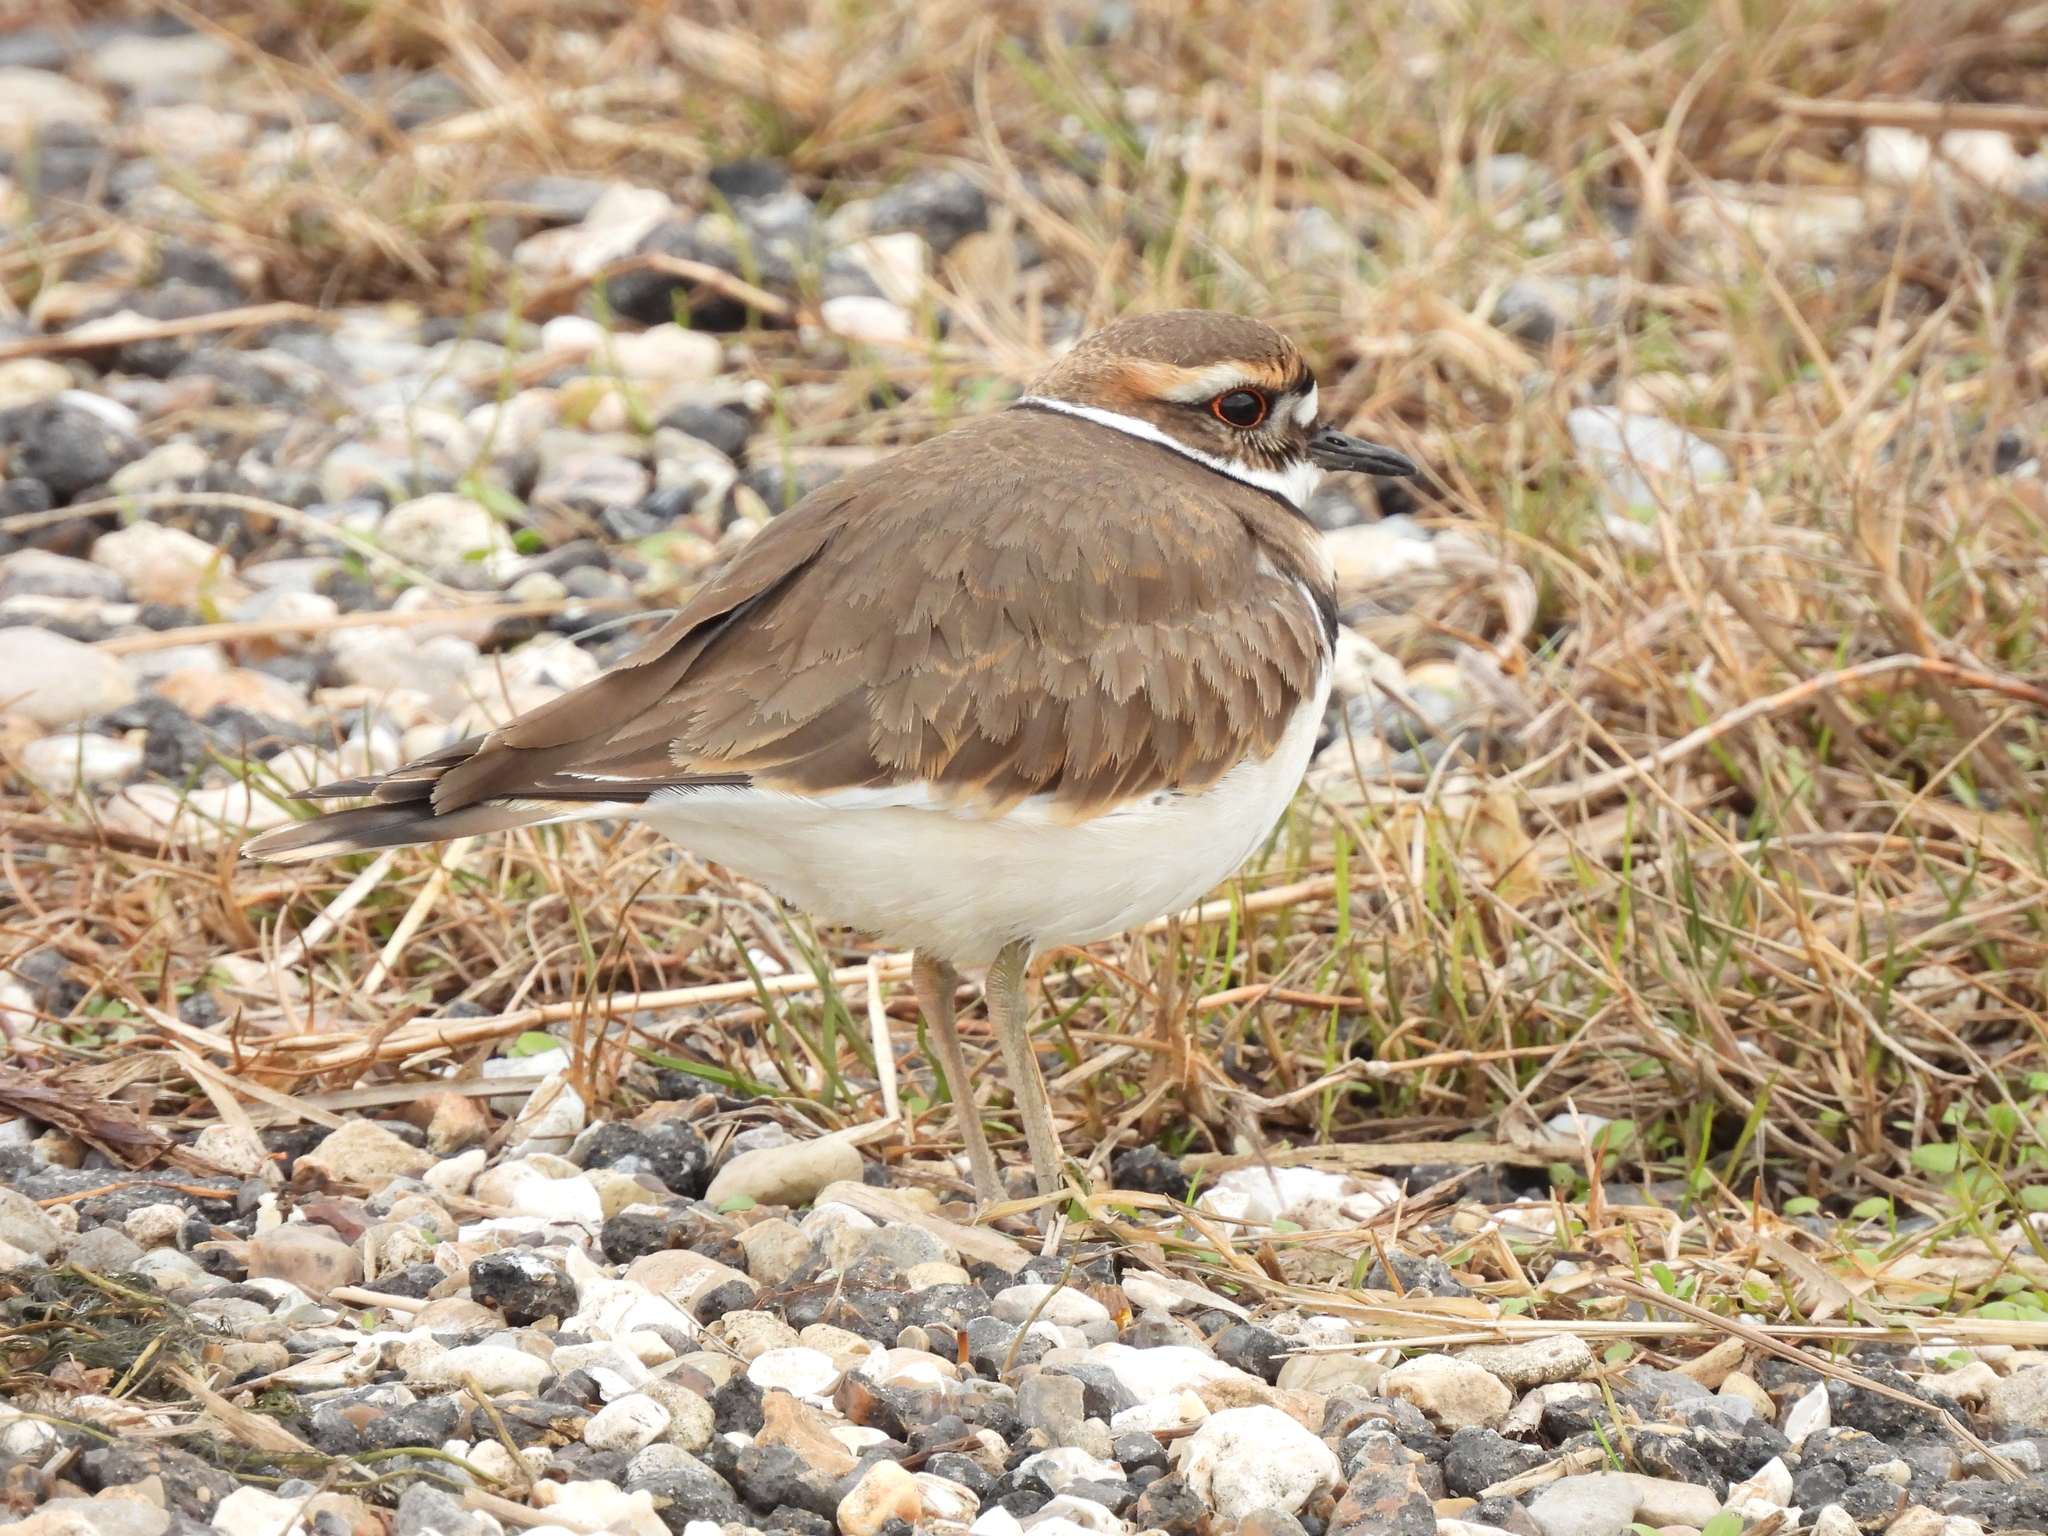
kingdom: Animalia
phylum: Chordata
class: Aves
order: Charadriiformes
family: Charadriidae
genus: Charadrius
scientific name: Charadrius vociferus
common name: Killdeer
